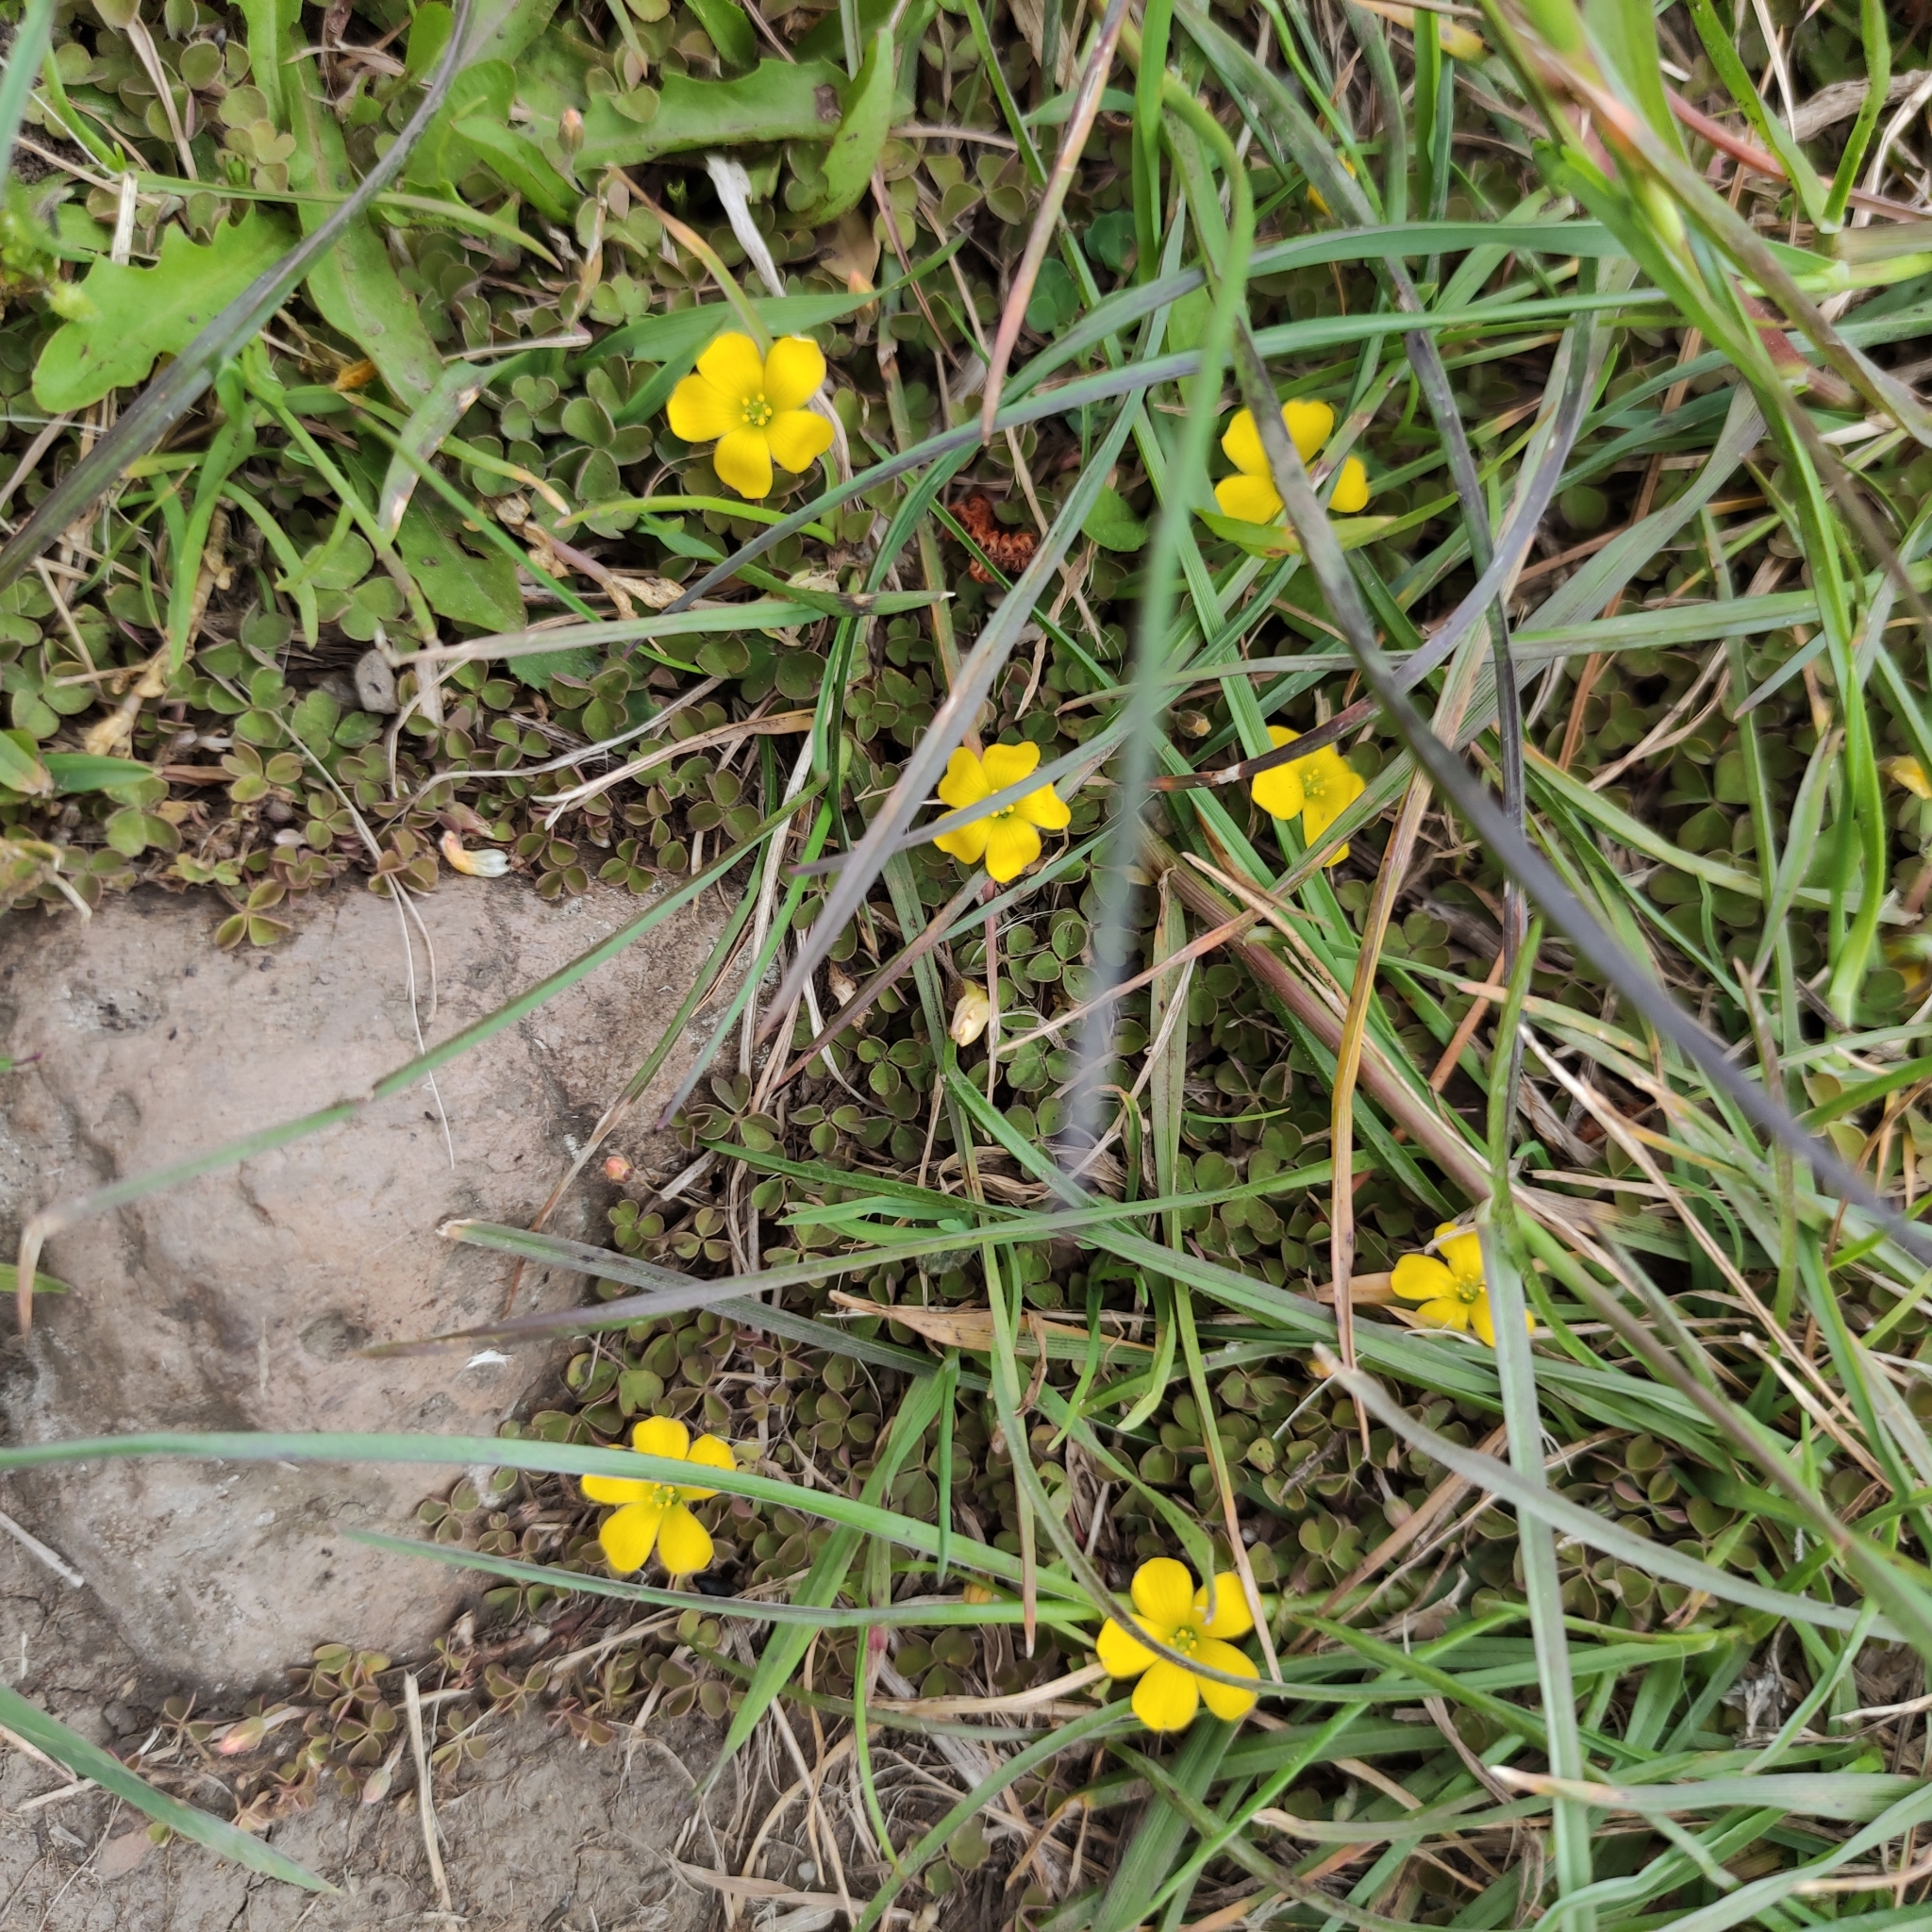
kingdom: Plantae
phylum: Tracheophyta
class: Magnoliopsida
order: Oxalidales
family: Oxalidaceae
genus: Oxalis
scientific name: Oxalis exilis
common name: Least yellow-sorrel
